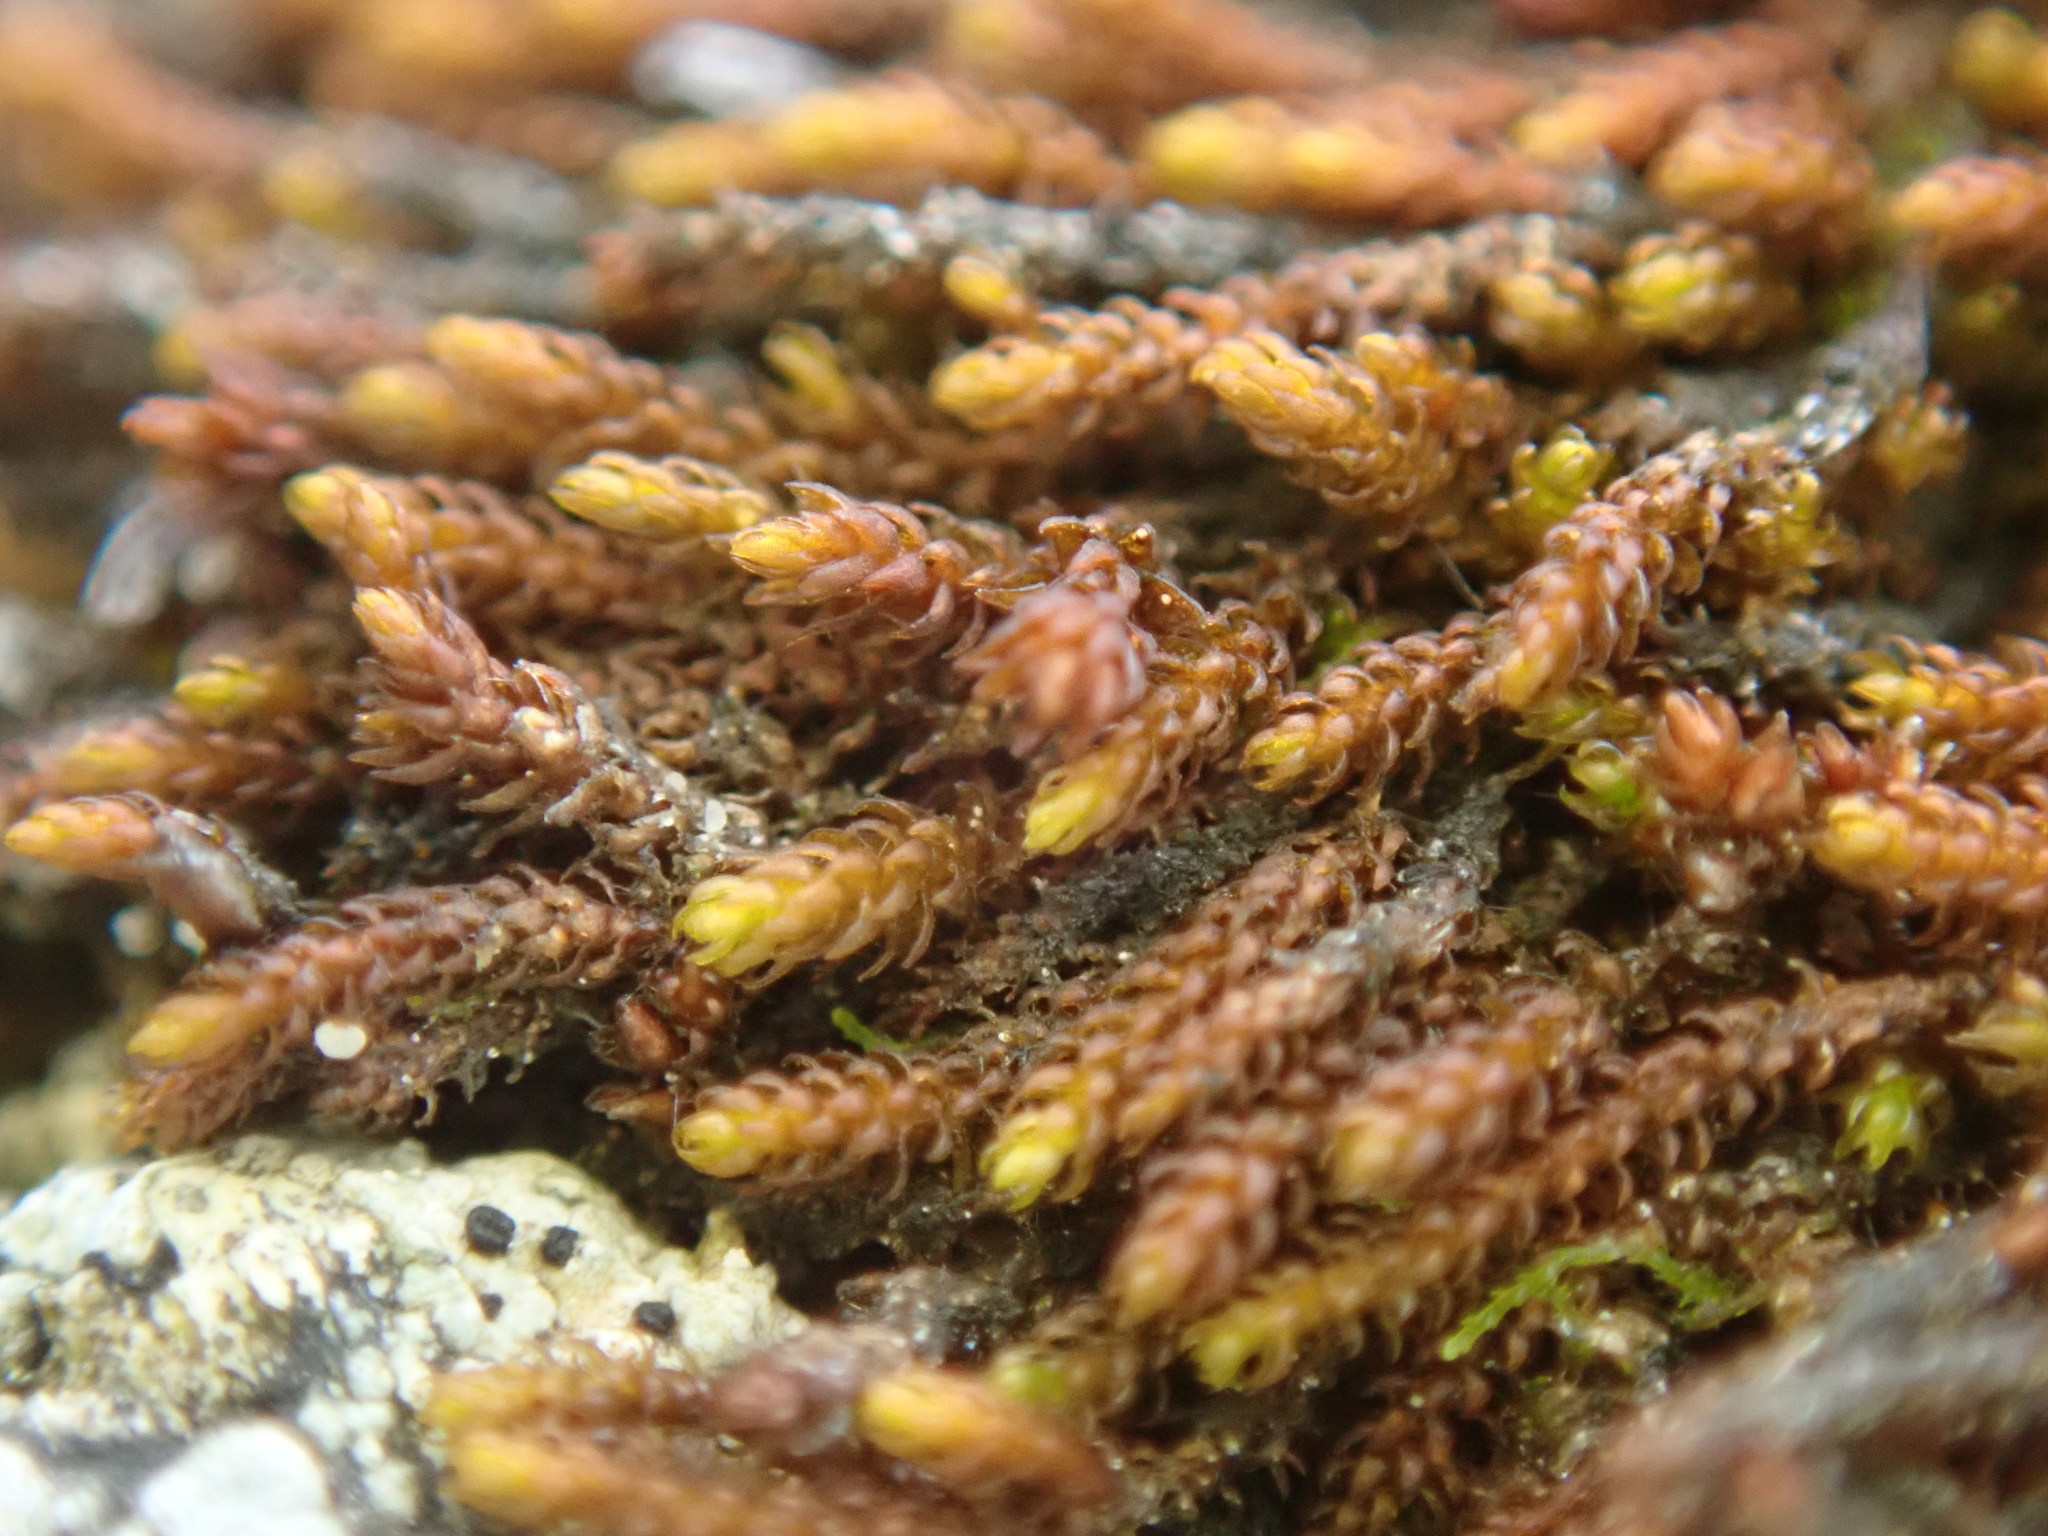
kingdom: Plantae
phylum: Bryophyta
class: Andreaeopsida
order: Andreaeales
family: Andreaeaceae
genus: Andreaea
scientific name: Andreaea rupestris
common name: Black rock moss
